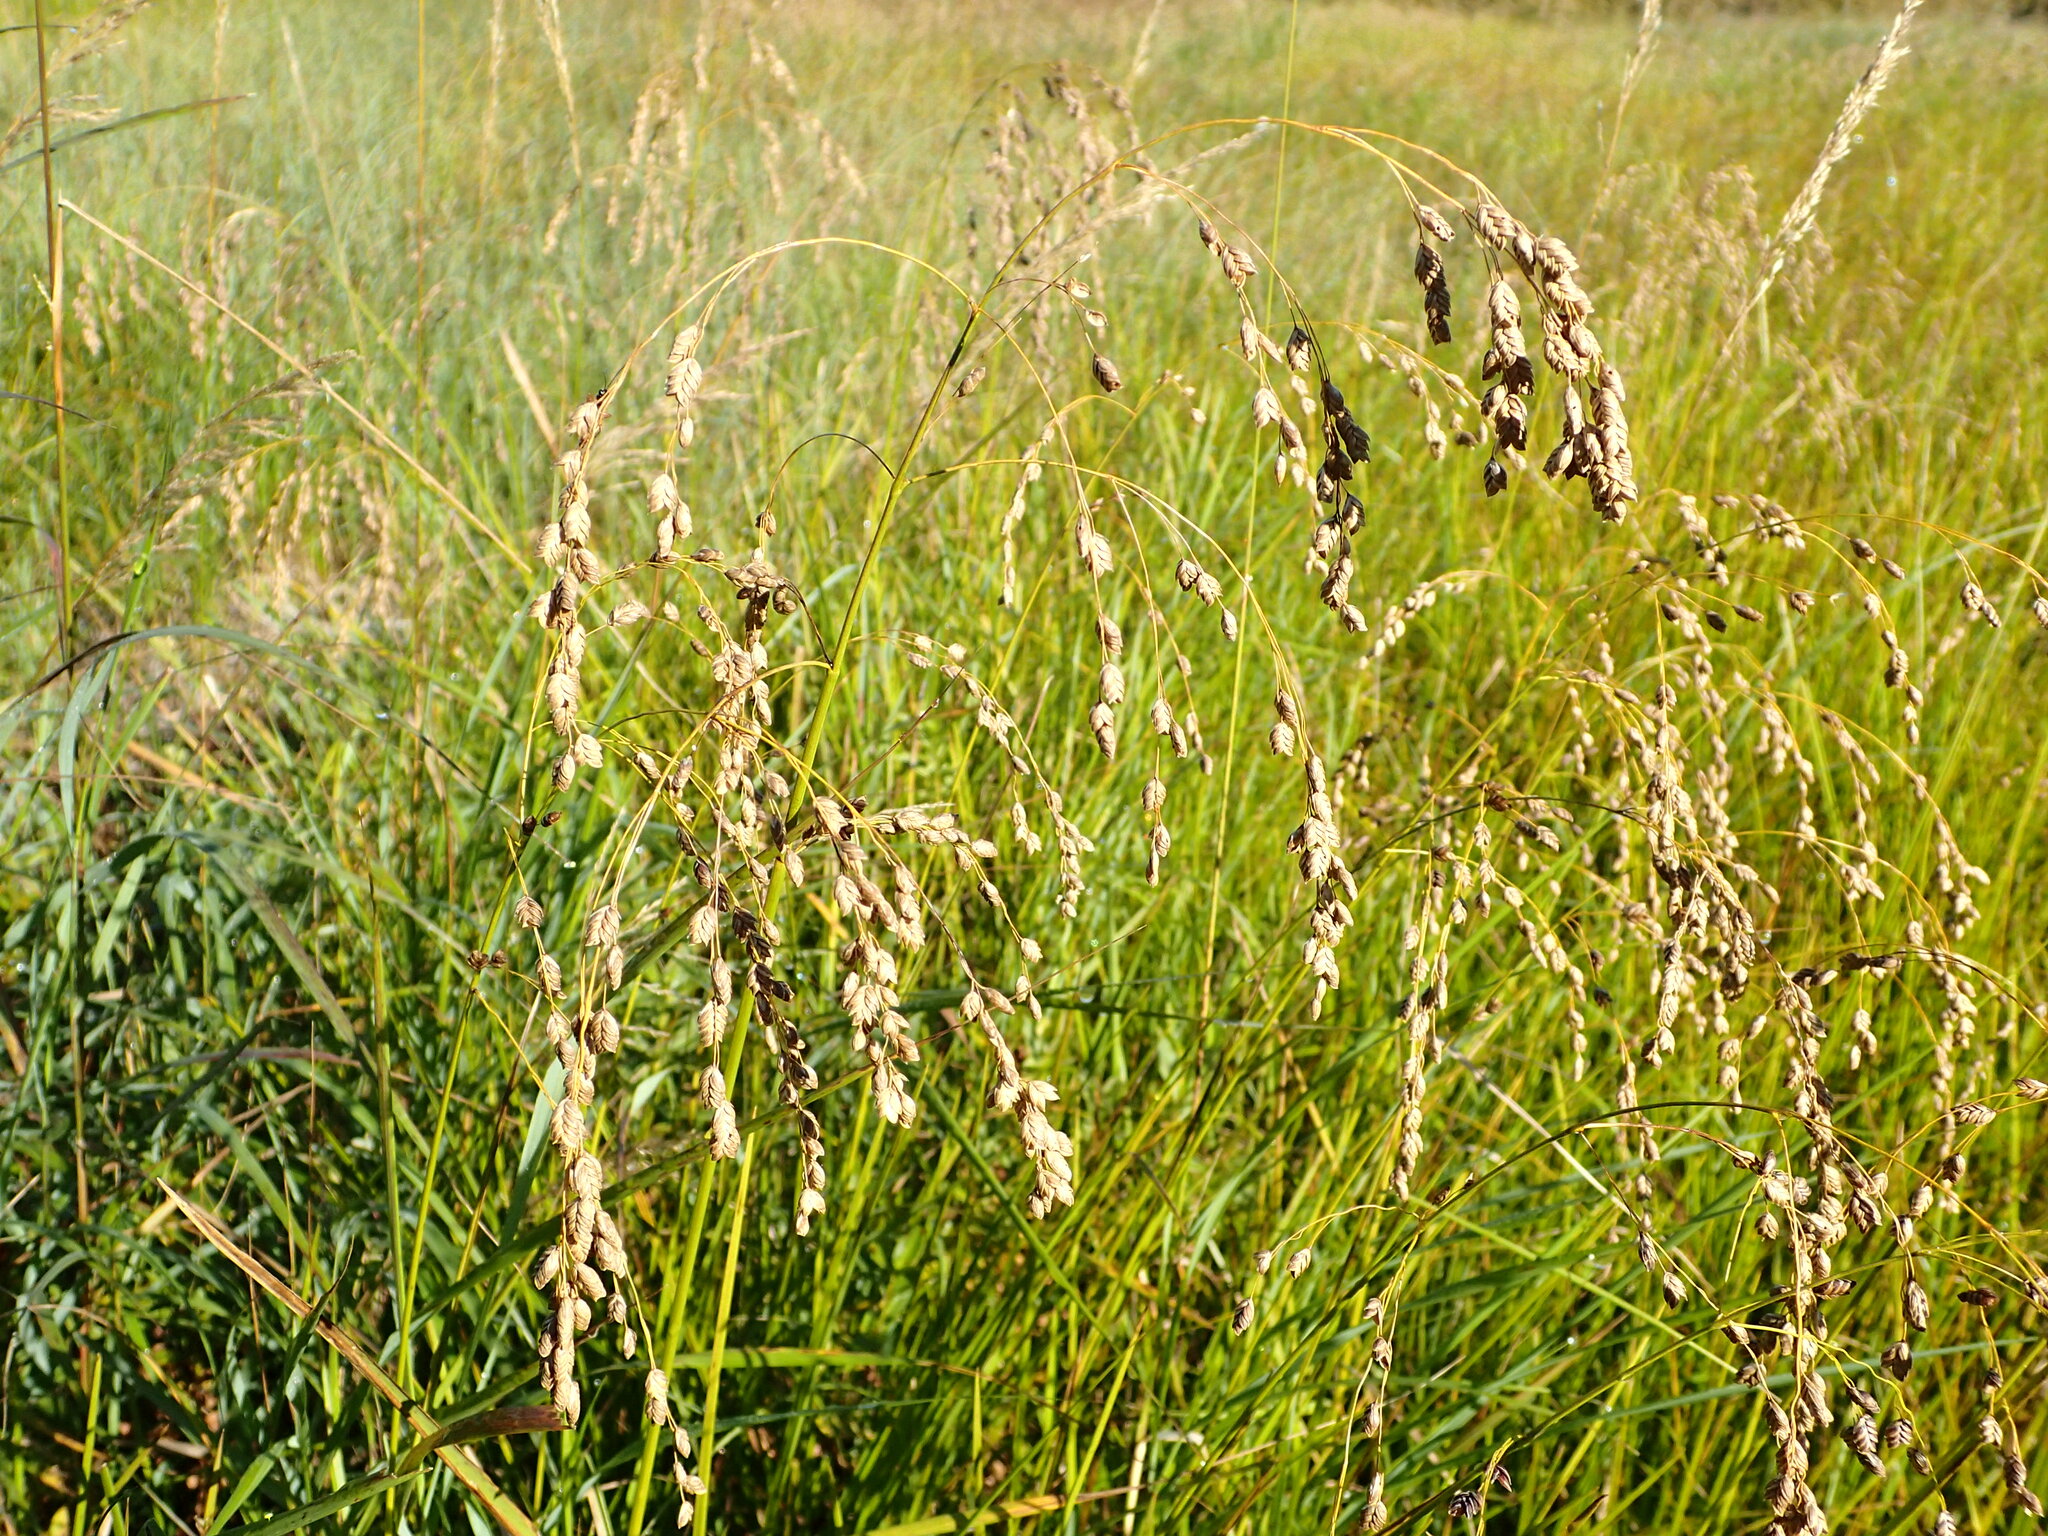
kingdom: Plantae
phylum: Tracheophyta
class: Liliopsida
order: Poales
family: Poaceae
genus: Glyceria
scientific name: Glyceria canadensis
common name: Canada mannagrass
